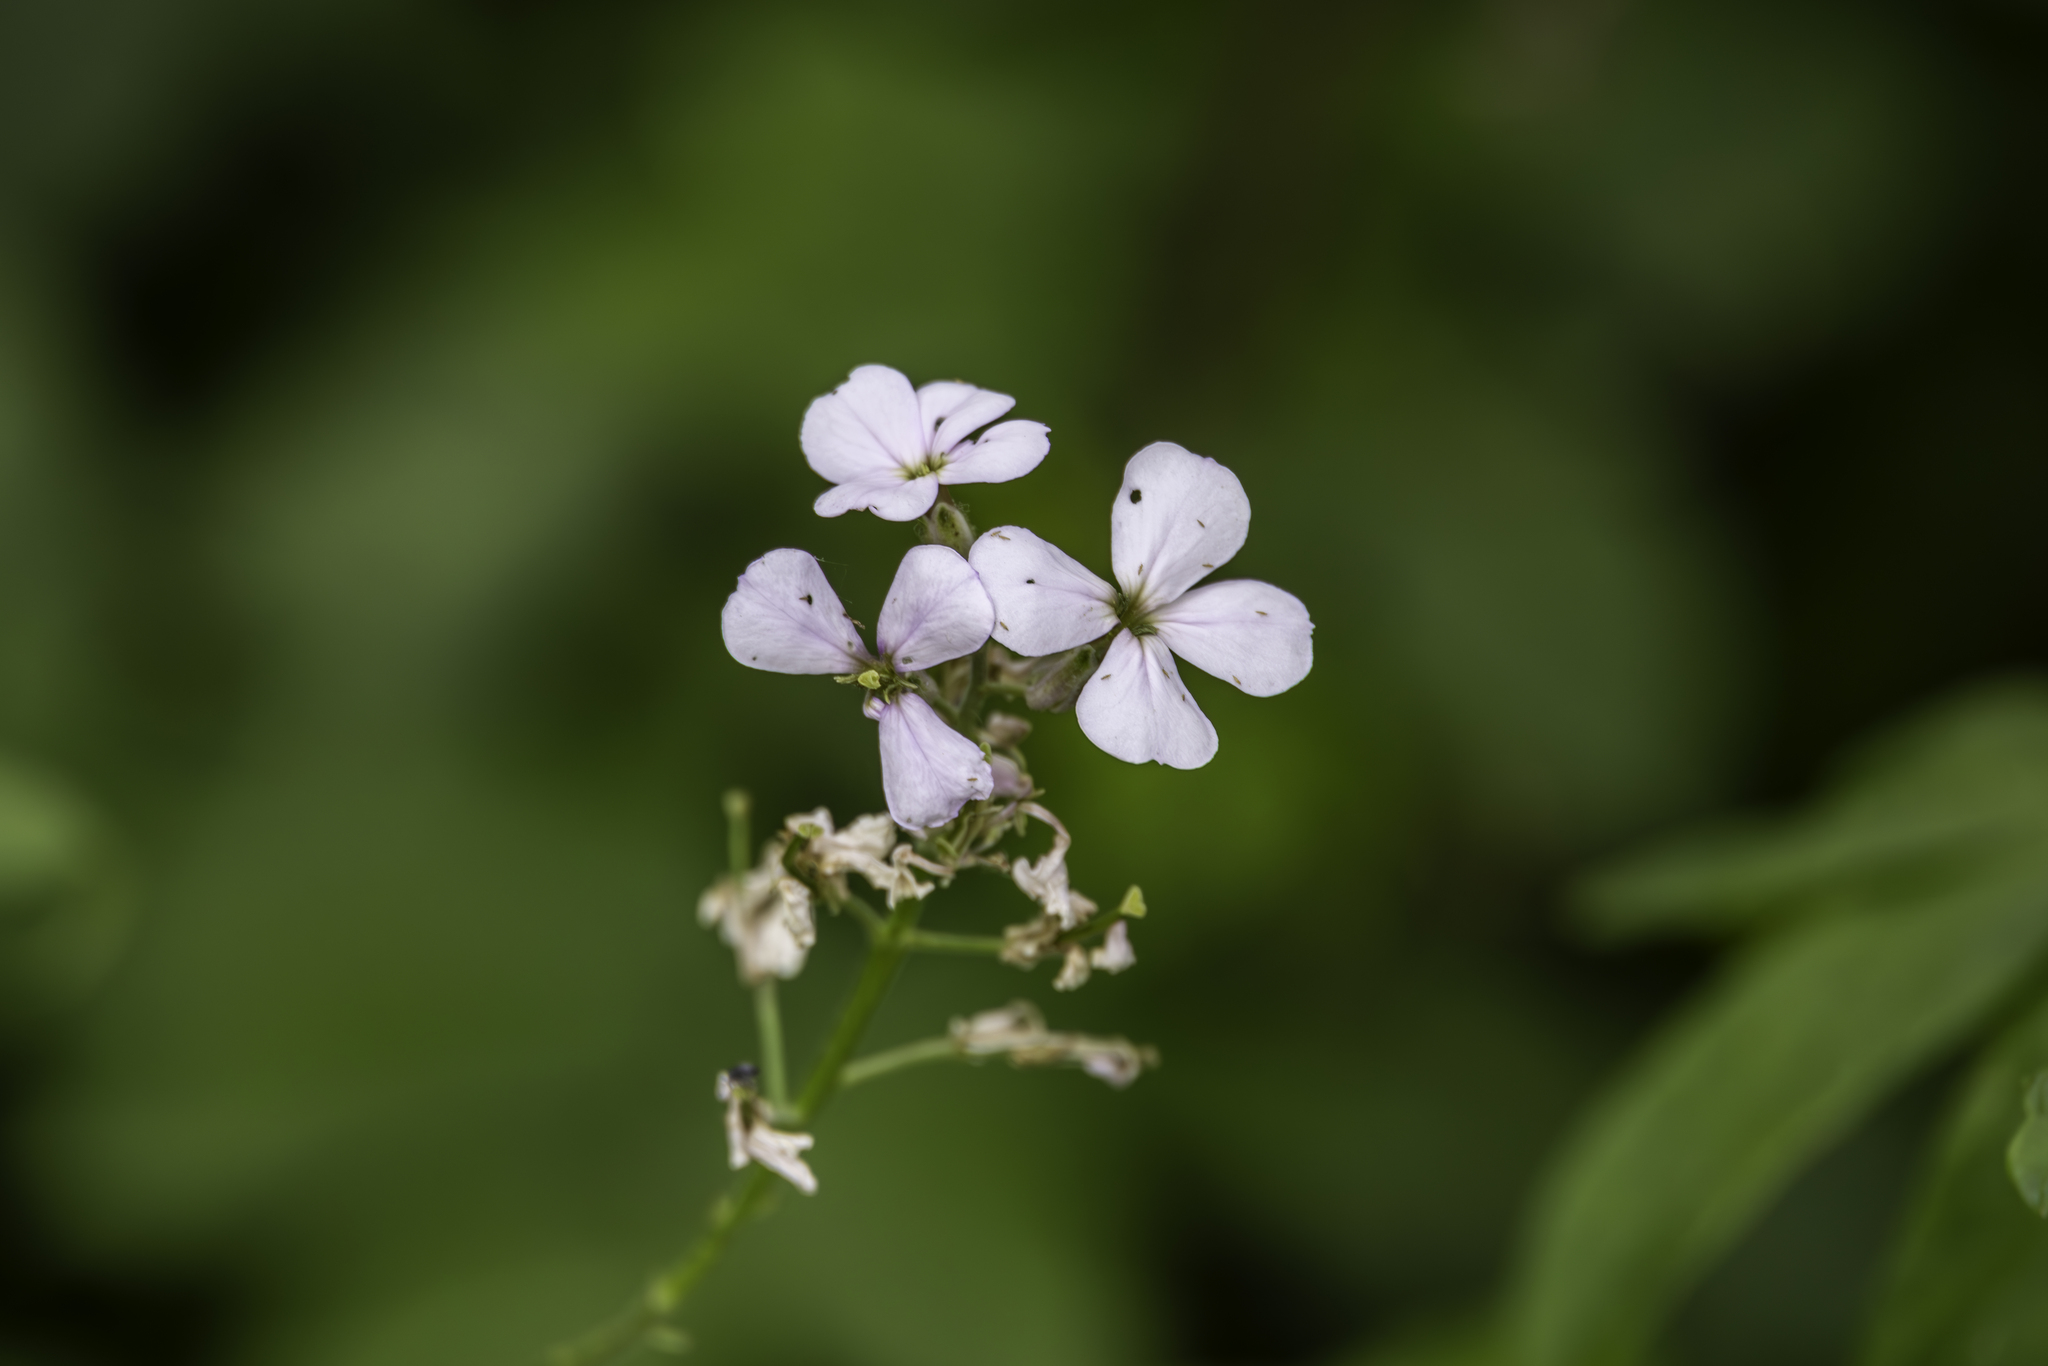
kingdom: Plantae
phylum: Tracheophyta
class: Magnoliopsida
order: Brassicales
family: Brassicaceae
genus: Hesperis
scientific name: Hesperis matronalis
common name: Dame's-violet
